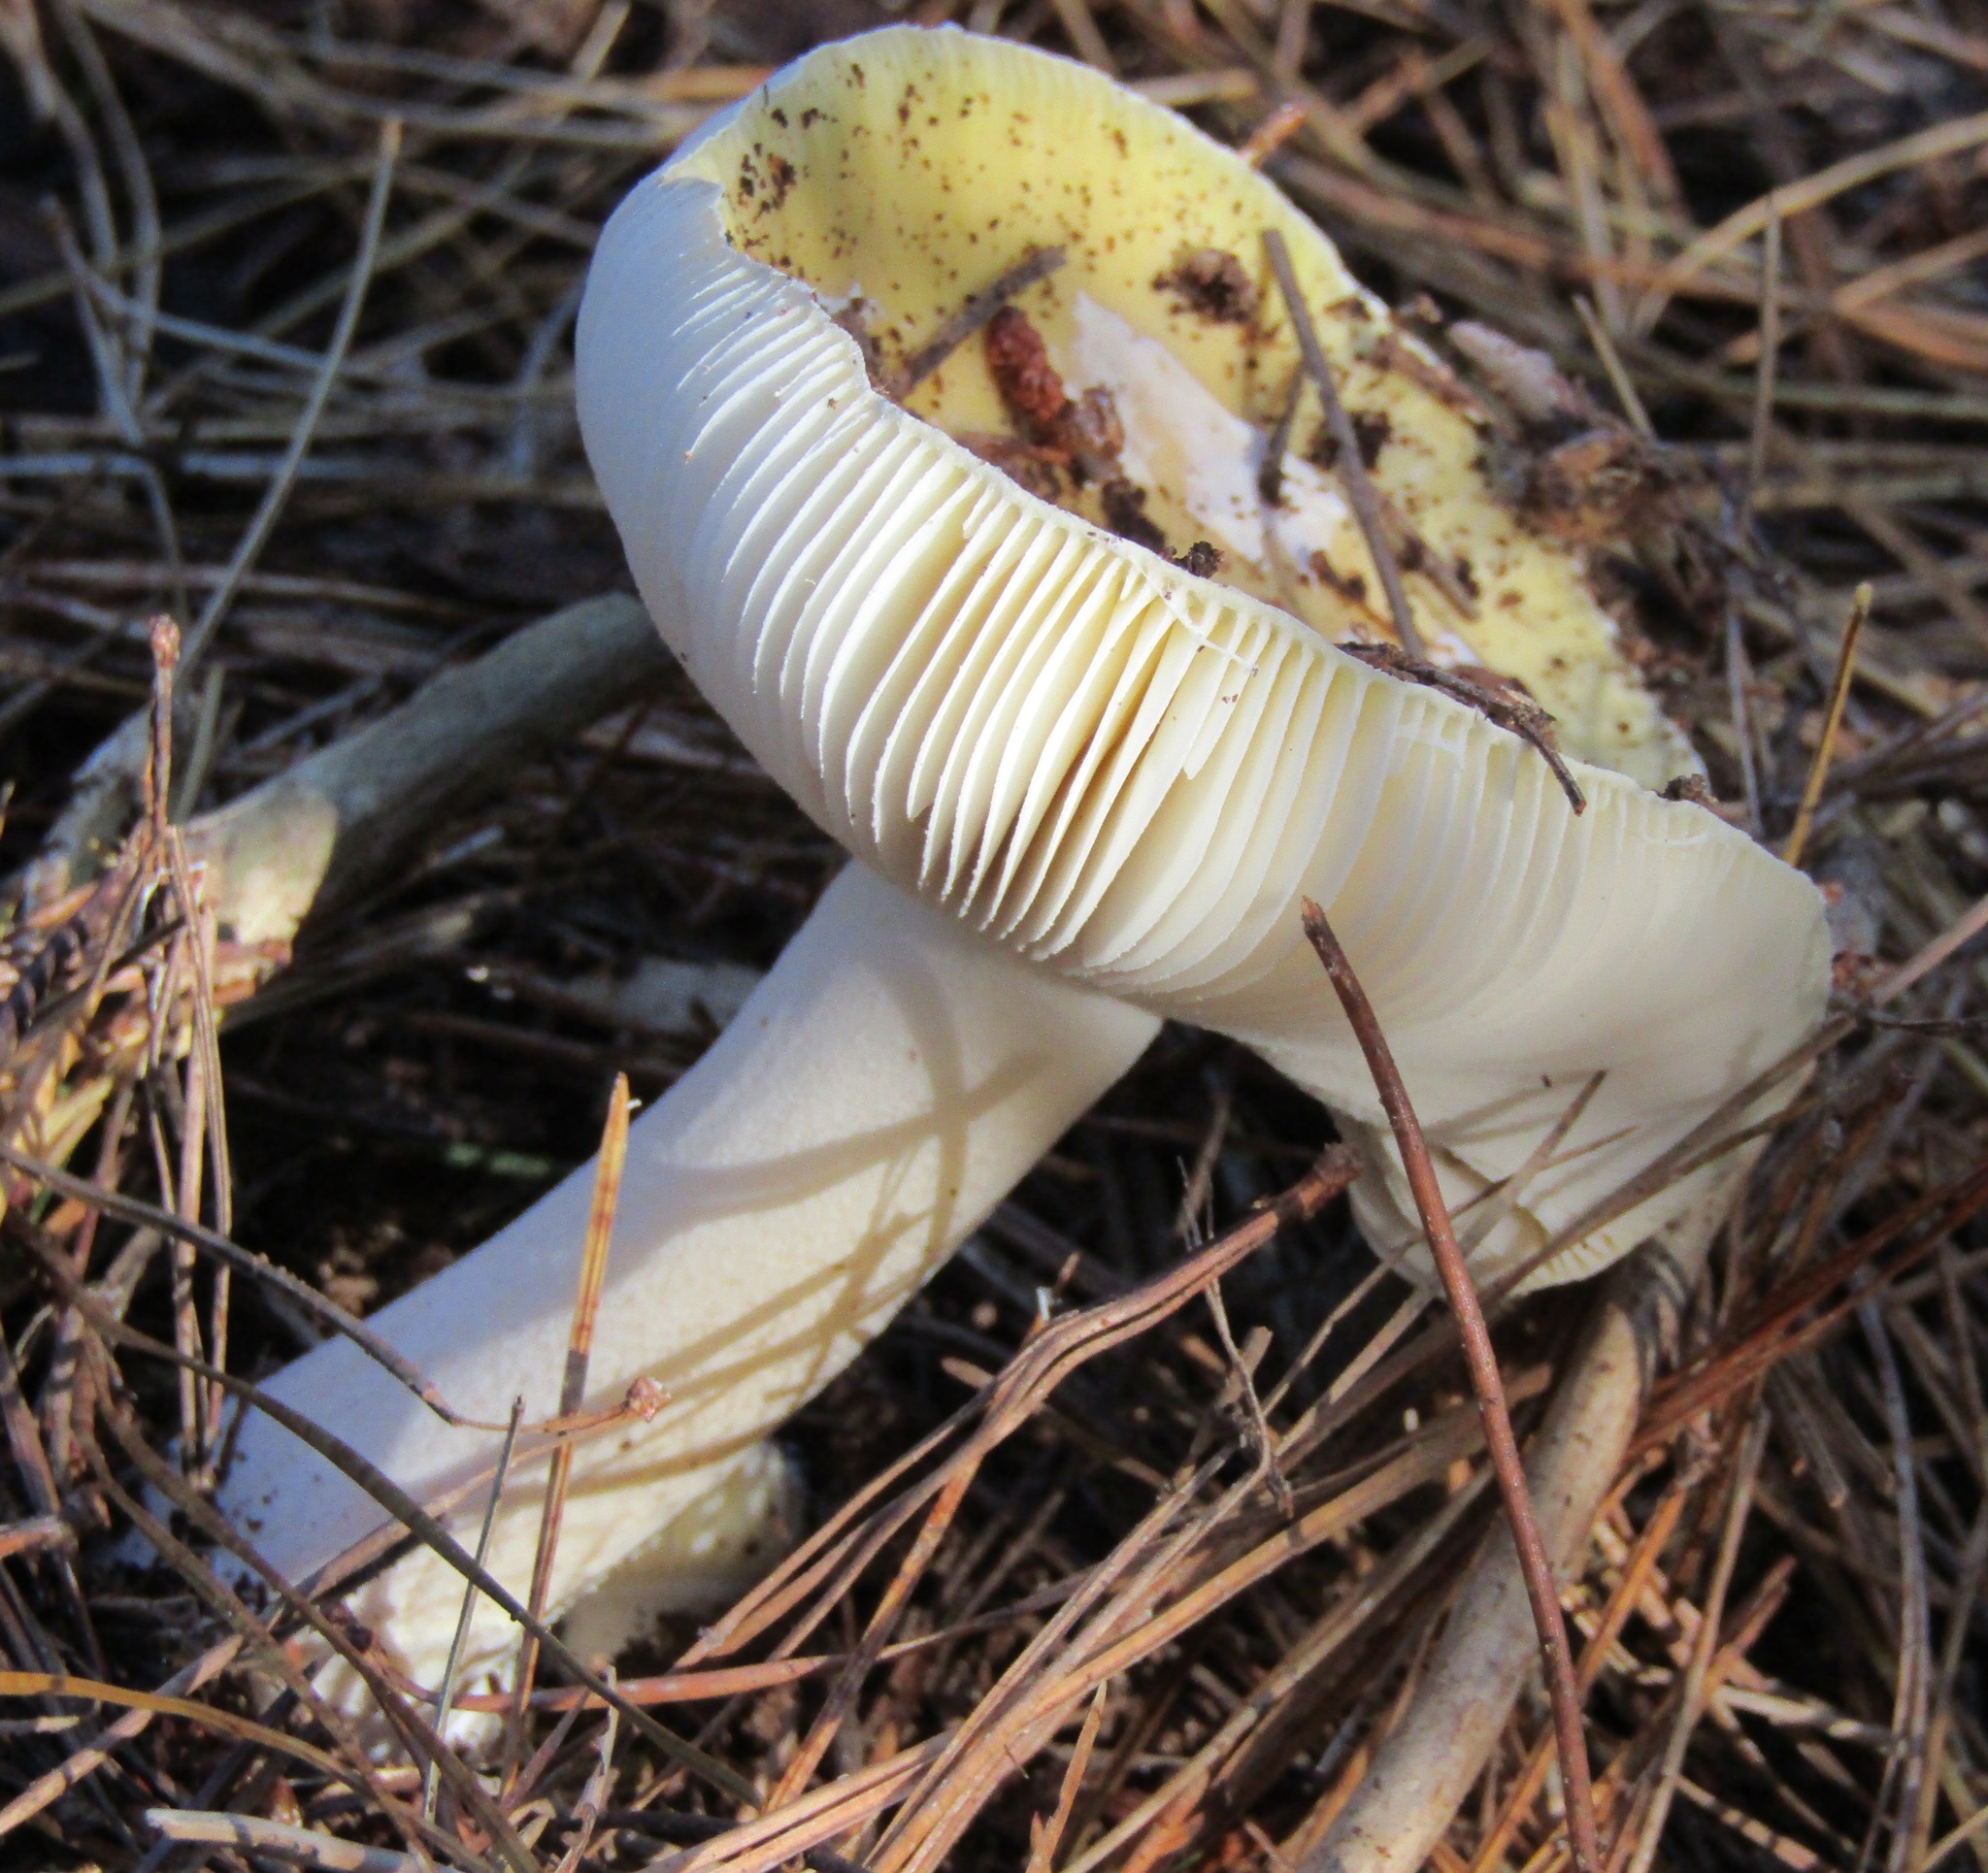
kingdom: Fungi
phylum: Basidiomycota
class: Agaricomycetes
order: Agaricales
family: Amanitaceae
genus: Amanita
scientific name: Amanita gemmata
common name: Jewelled amanita
